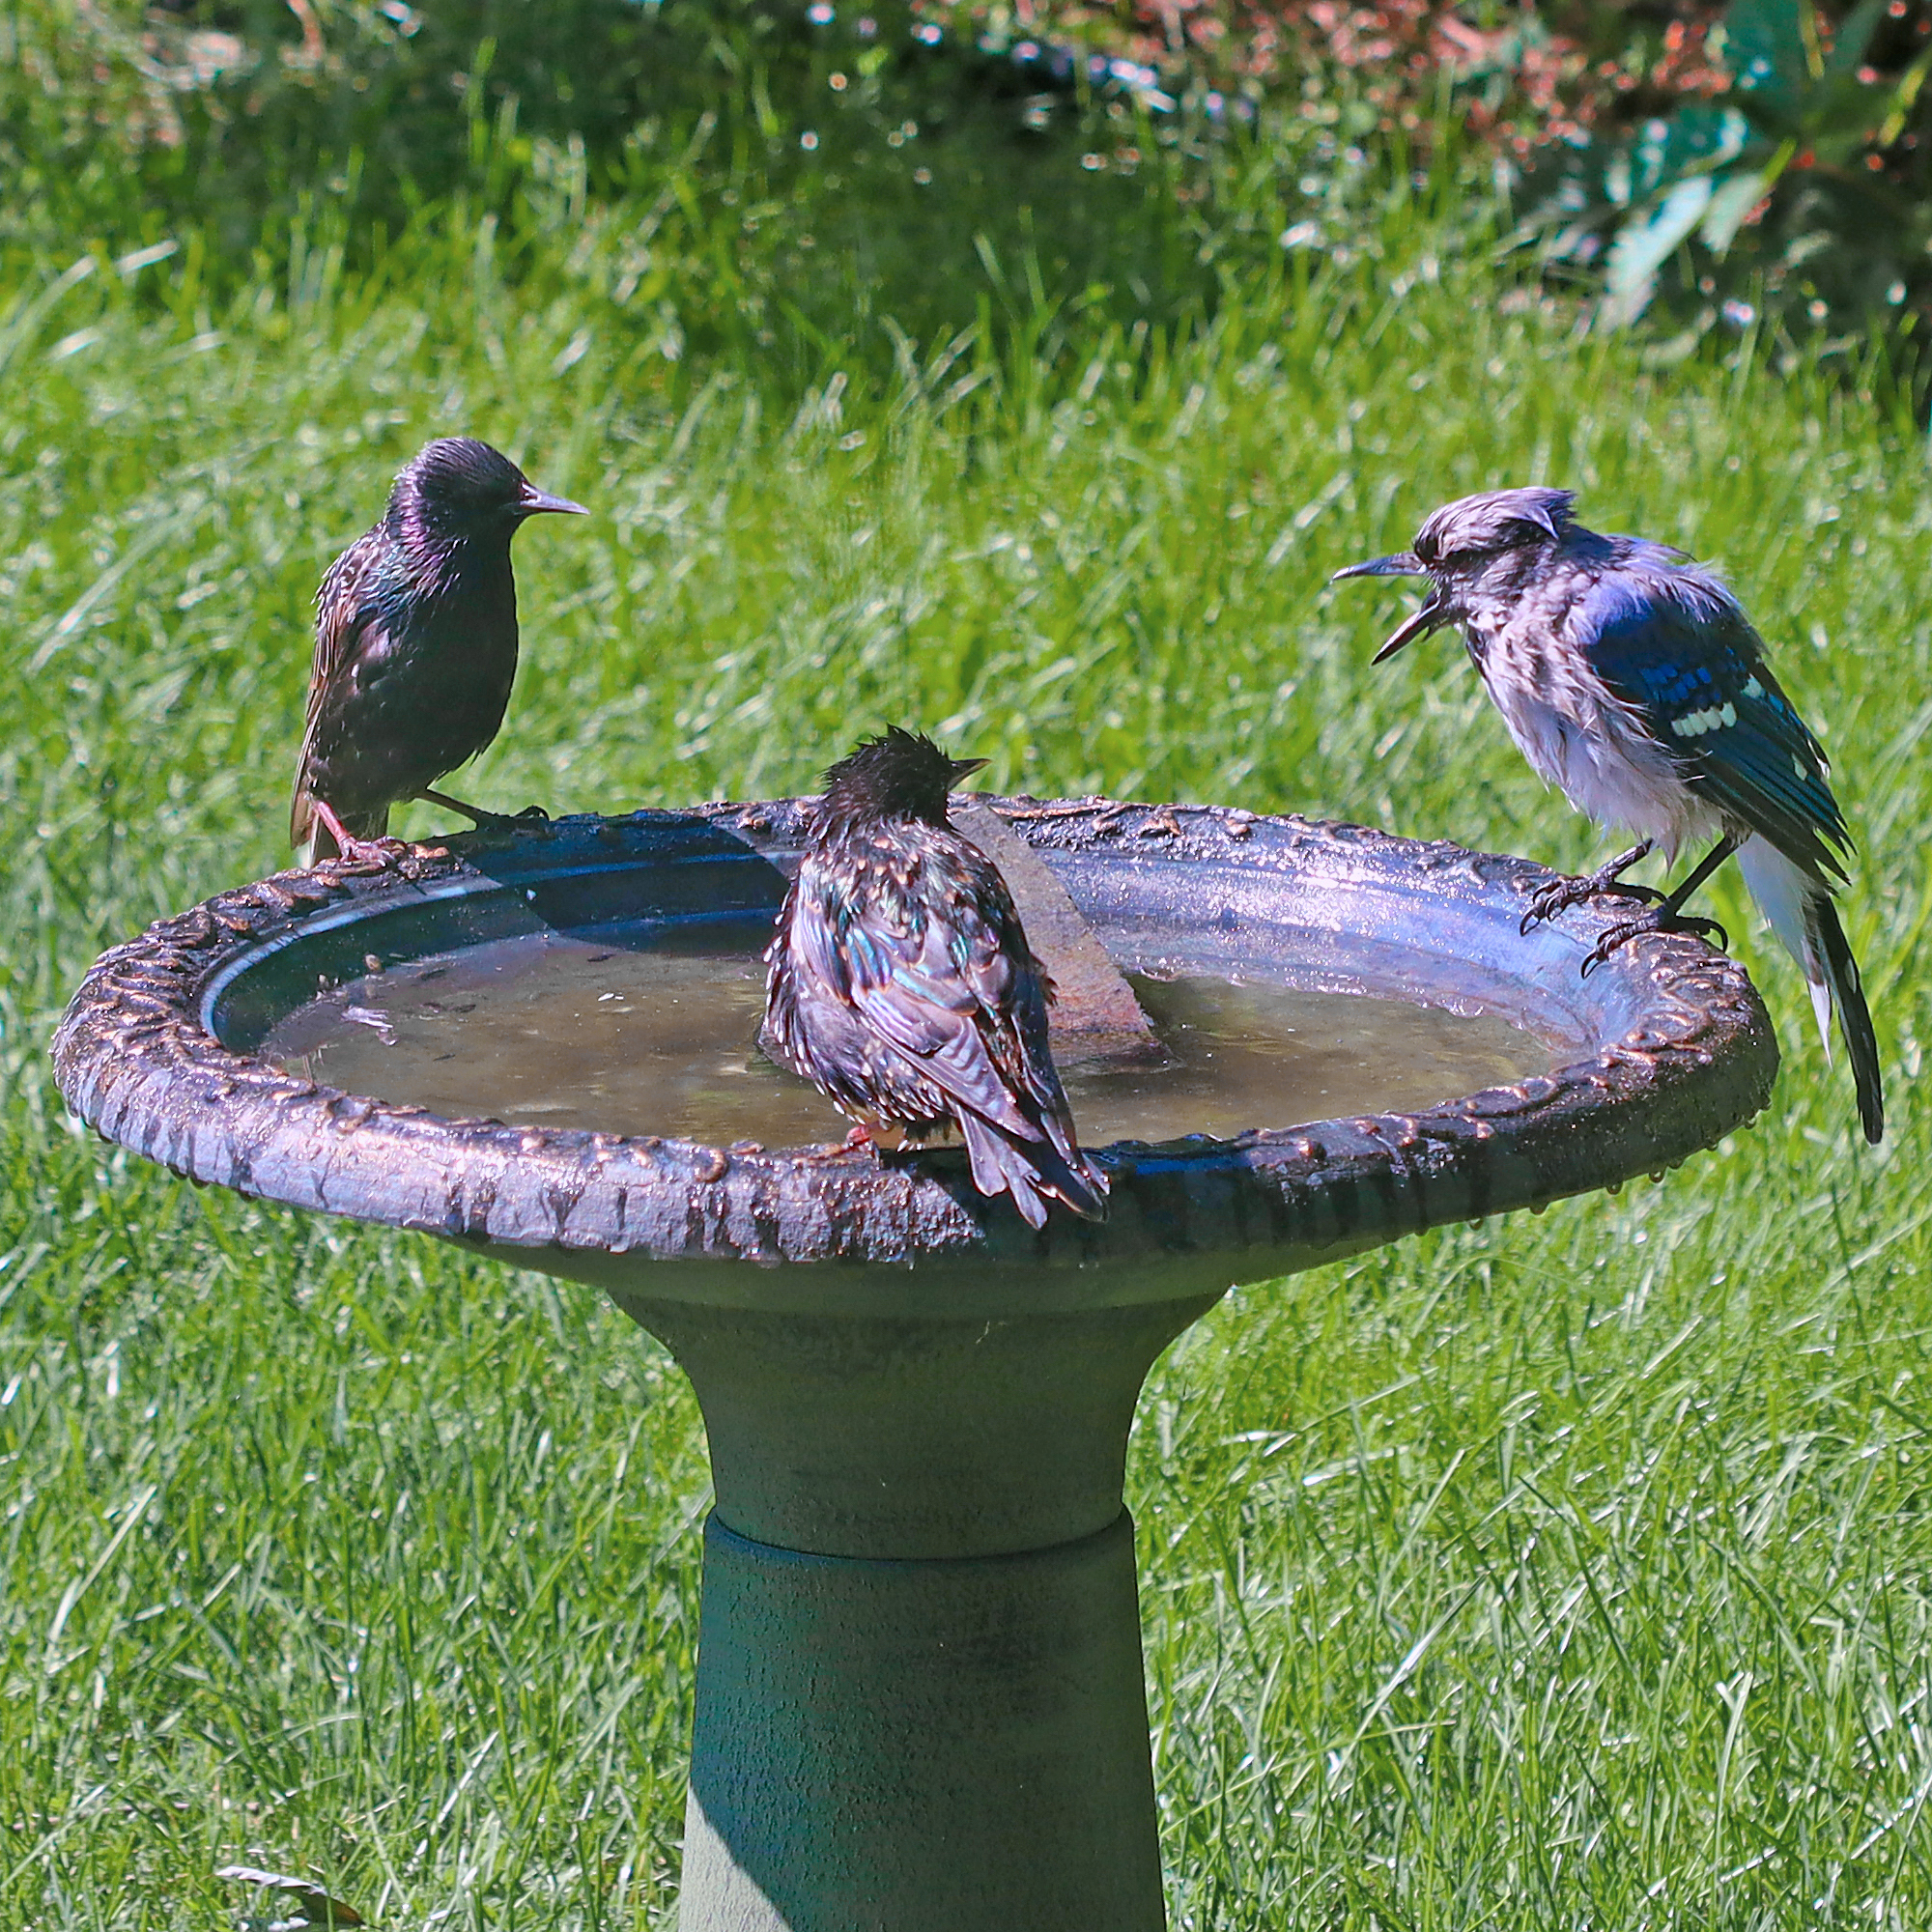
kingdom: Animalia
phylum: Chordata
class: Aves
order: Passeriformes
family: Corvidae
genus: Cyanocitta
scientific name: Cyanocitta cristata
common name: Blue jay
